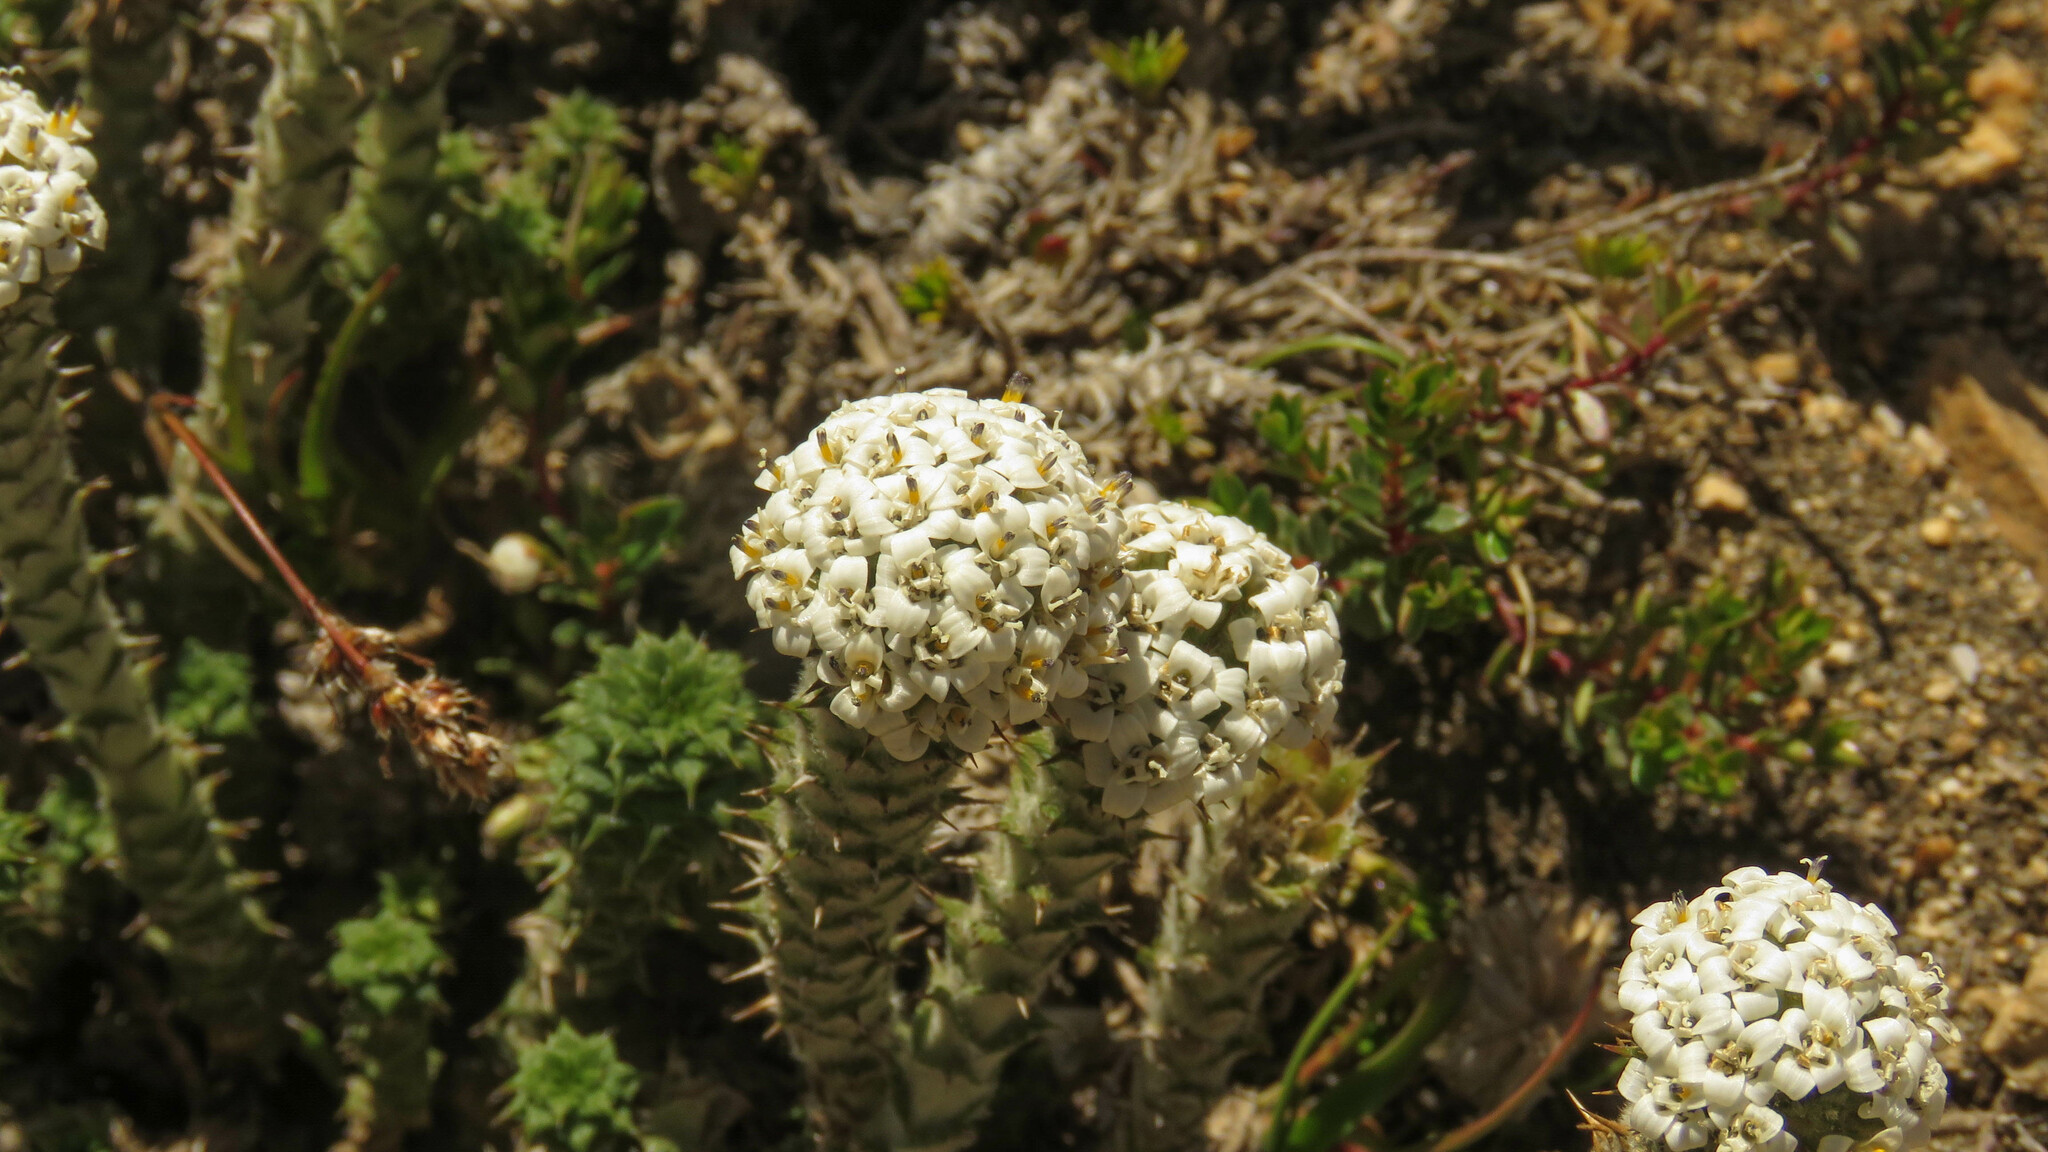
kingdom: Plantae
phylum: Tracheophyta
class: Magnoliopsida
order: Asterales
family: Asteraceae
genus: Nassauvia
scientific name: Nassauvia revoluta
